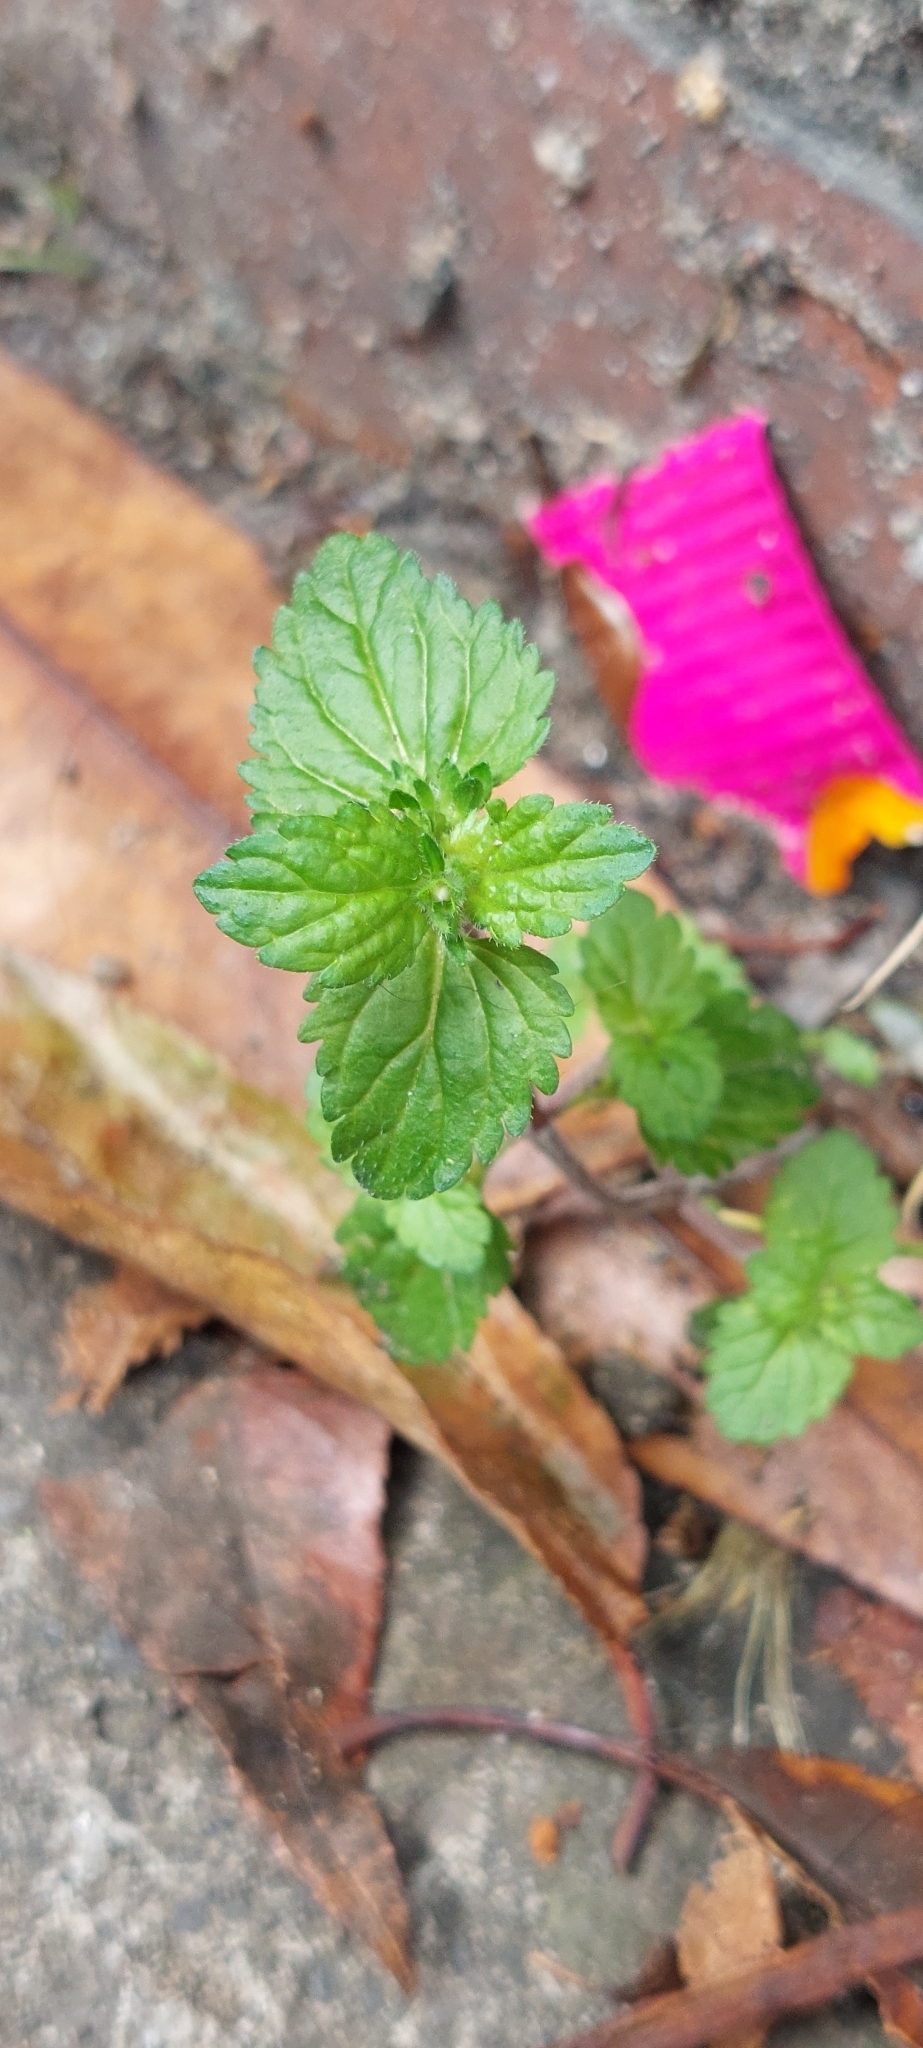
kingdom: Plantae
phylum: Tracheophyta
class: Magnoliopsida
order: Lamiales
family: Plantaginaceae
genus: Veronica
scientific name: Veronica javanica
